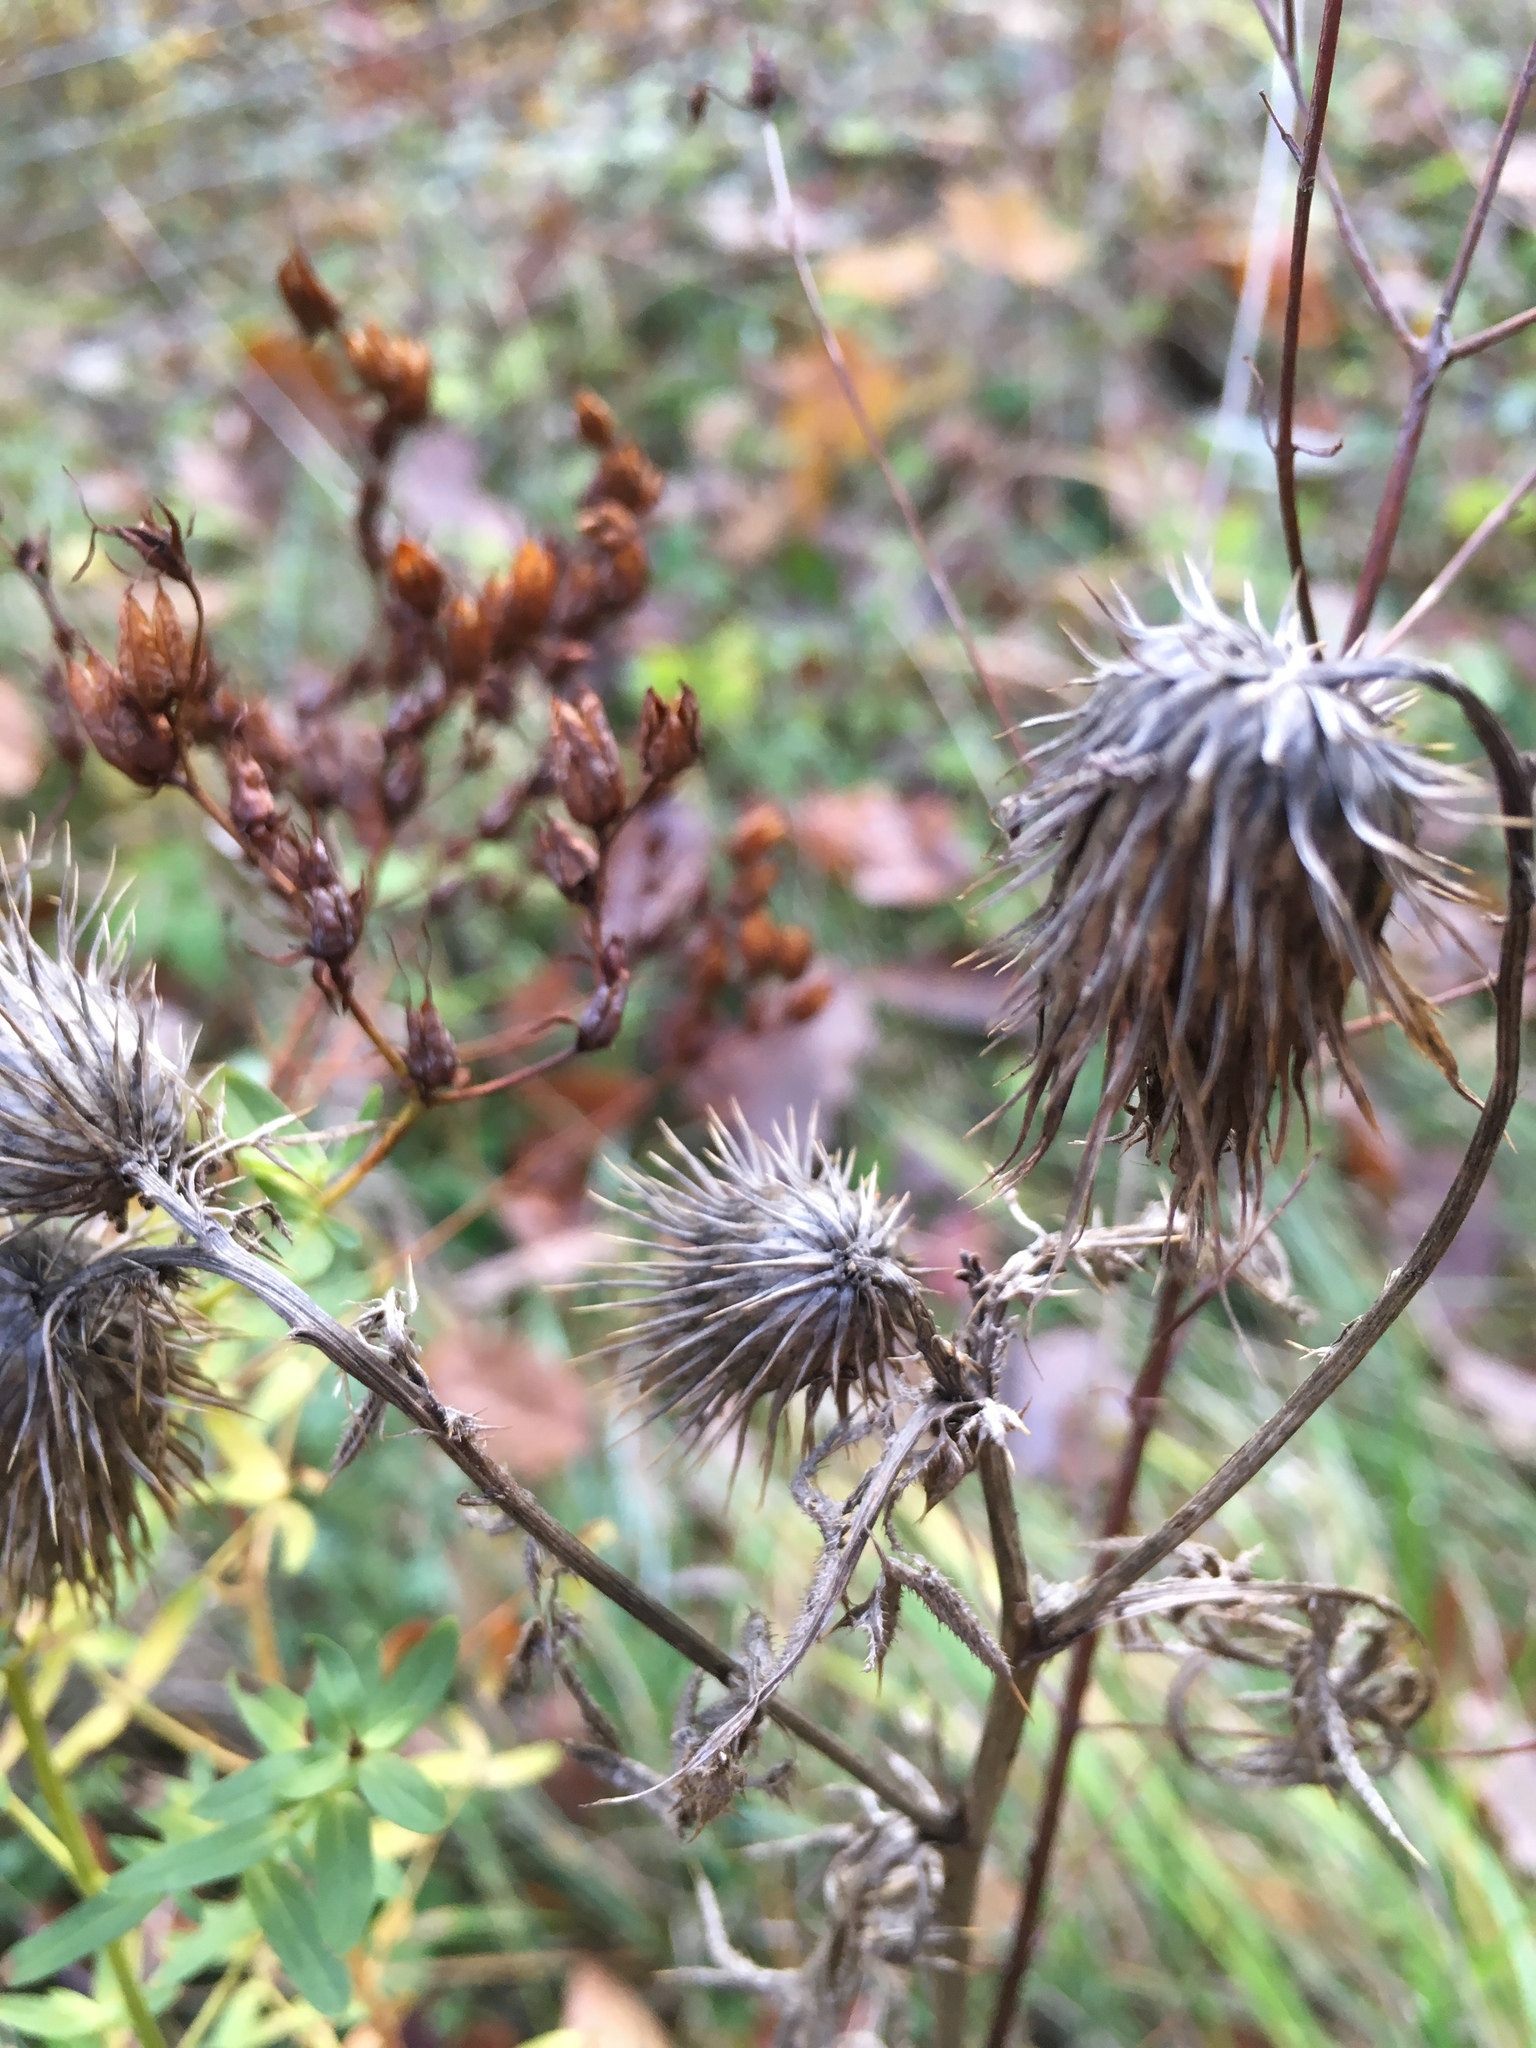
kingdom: Plantae
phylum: Tracheophyta
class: Magnoliopsida
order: Asterales
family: Asteraceae
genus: Cirsium
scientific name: Cirsium vulgare
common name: Bull thistle
